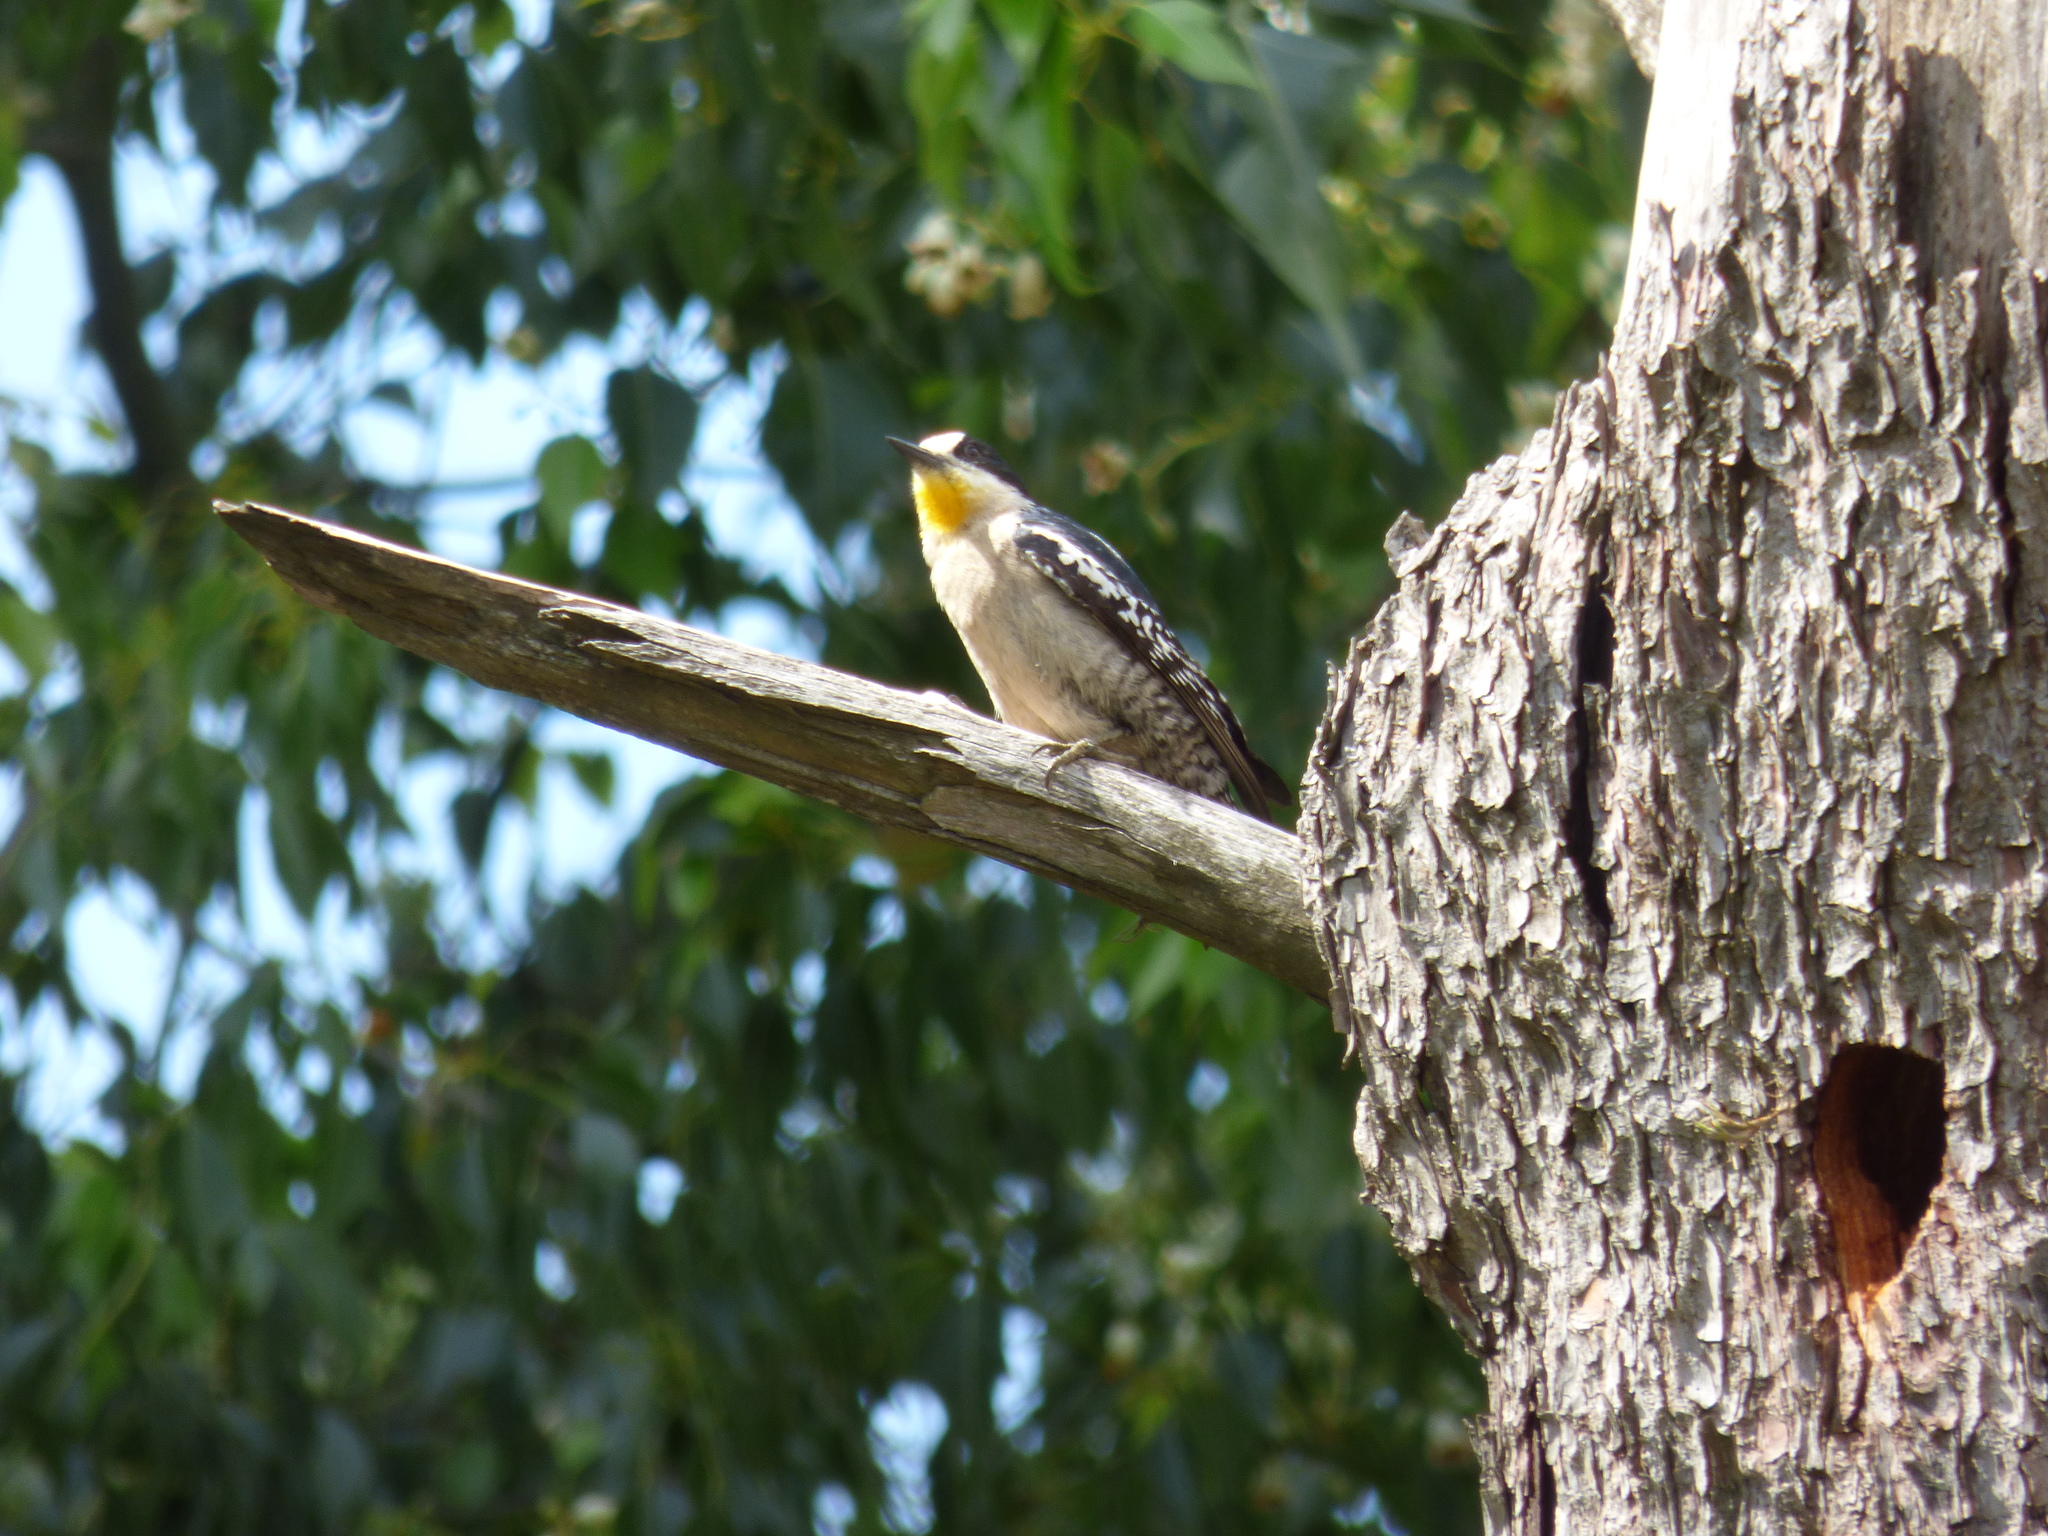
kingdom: Animalia
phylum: Chordata
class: Aves
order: Piciformes
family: Picidae
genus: Melanerpes
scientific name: Melanerpes cactorum
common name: White-fronted woodpecker
